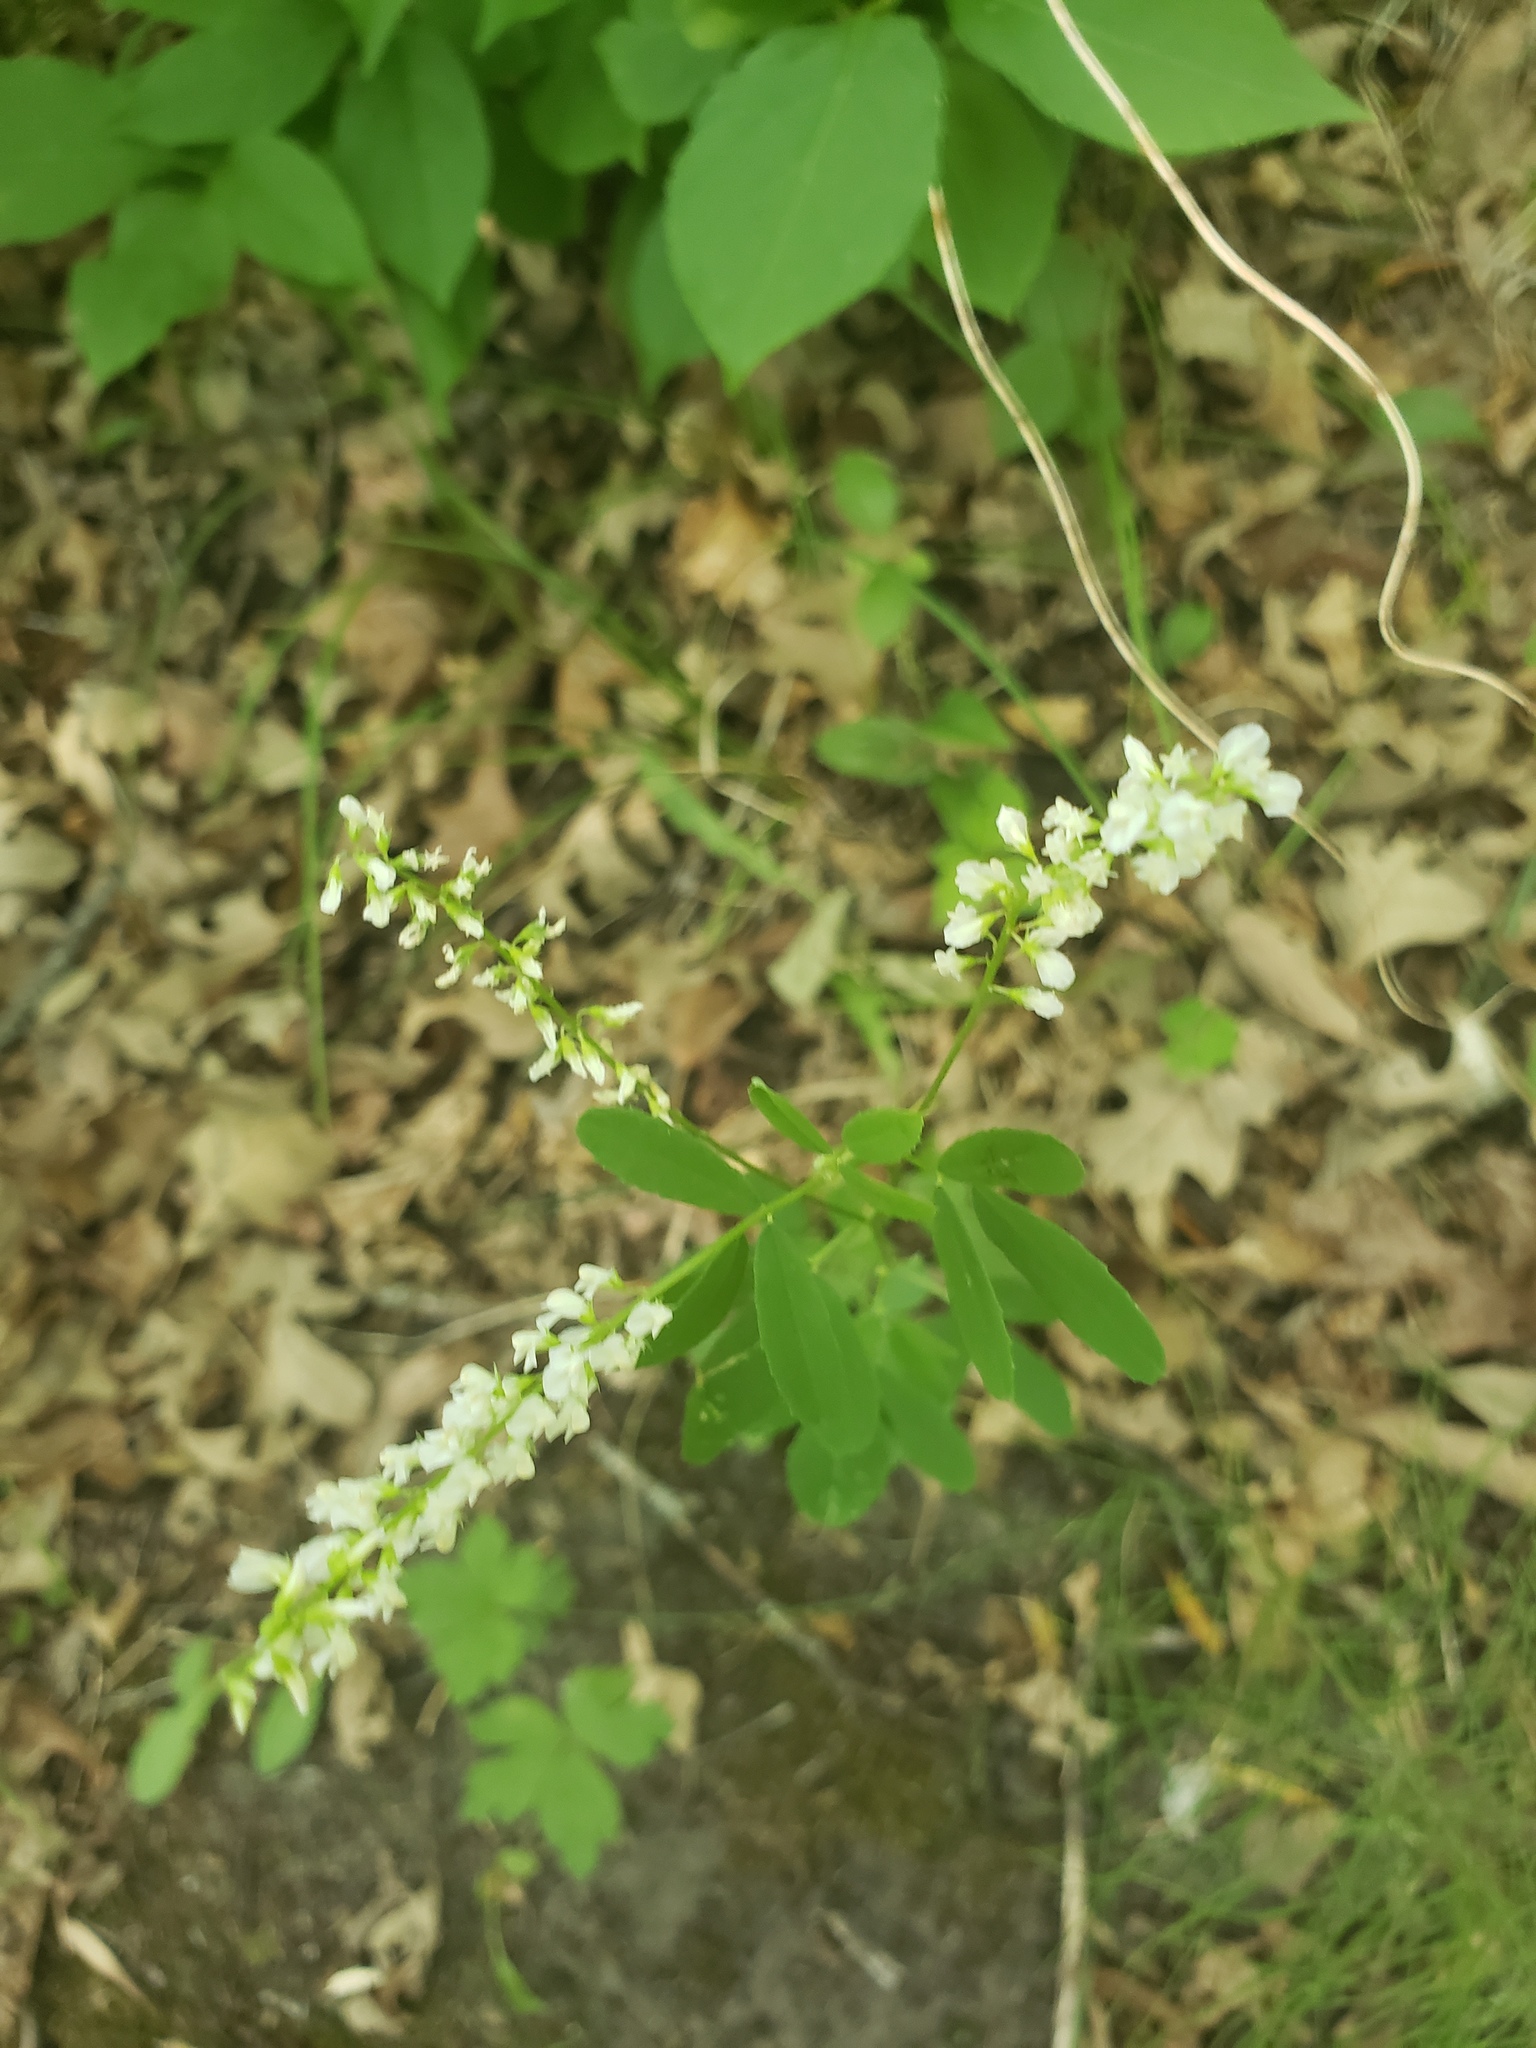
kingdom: Plantae
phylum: Tracheophyta
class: Magnoliopsida
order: Fabales
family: Fabaceae
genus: Melilotus
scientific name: Melilotus albus
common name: White melilot
